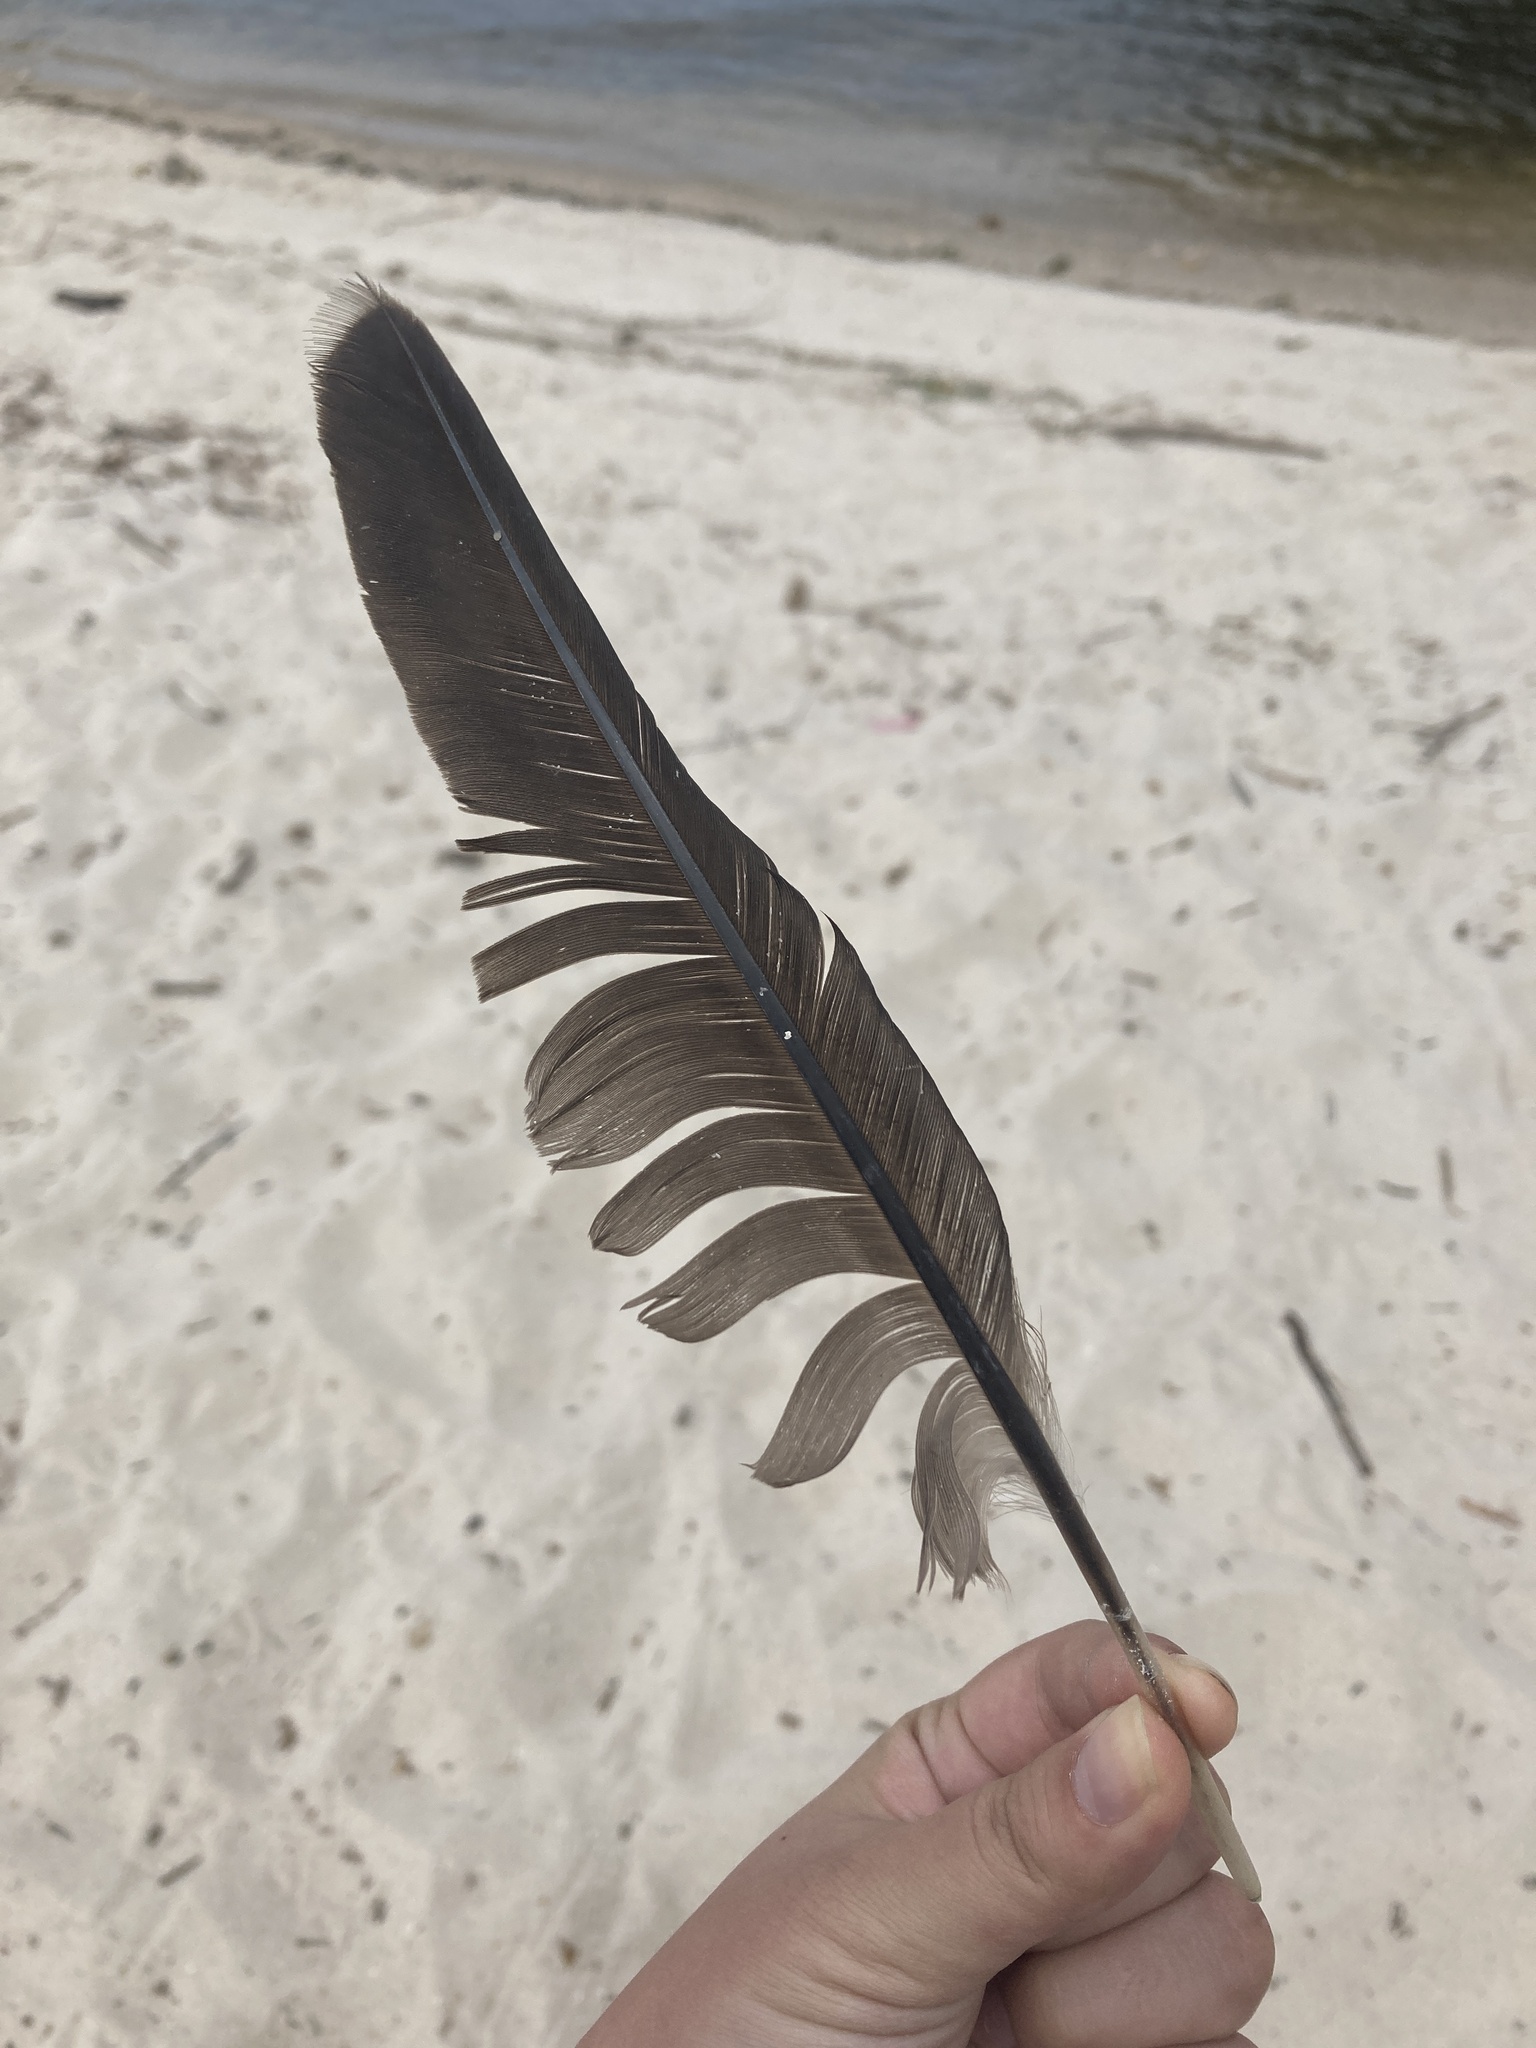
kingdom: Animalia
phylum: Chordata
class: Aves
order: Suliformes
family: Phalacrocoracidae
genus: Phalacrocorax
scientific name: Phalacrocorax auritus
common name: Double-crested cormorant
